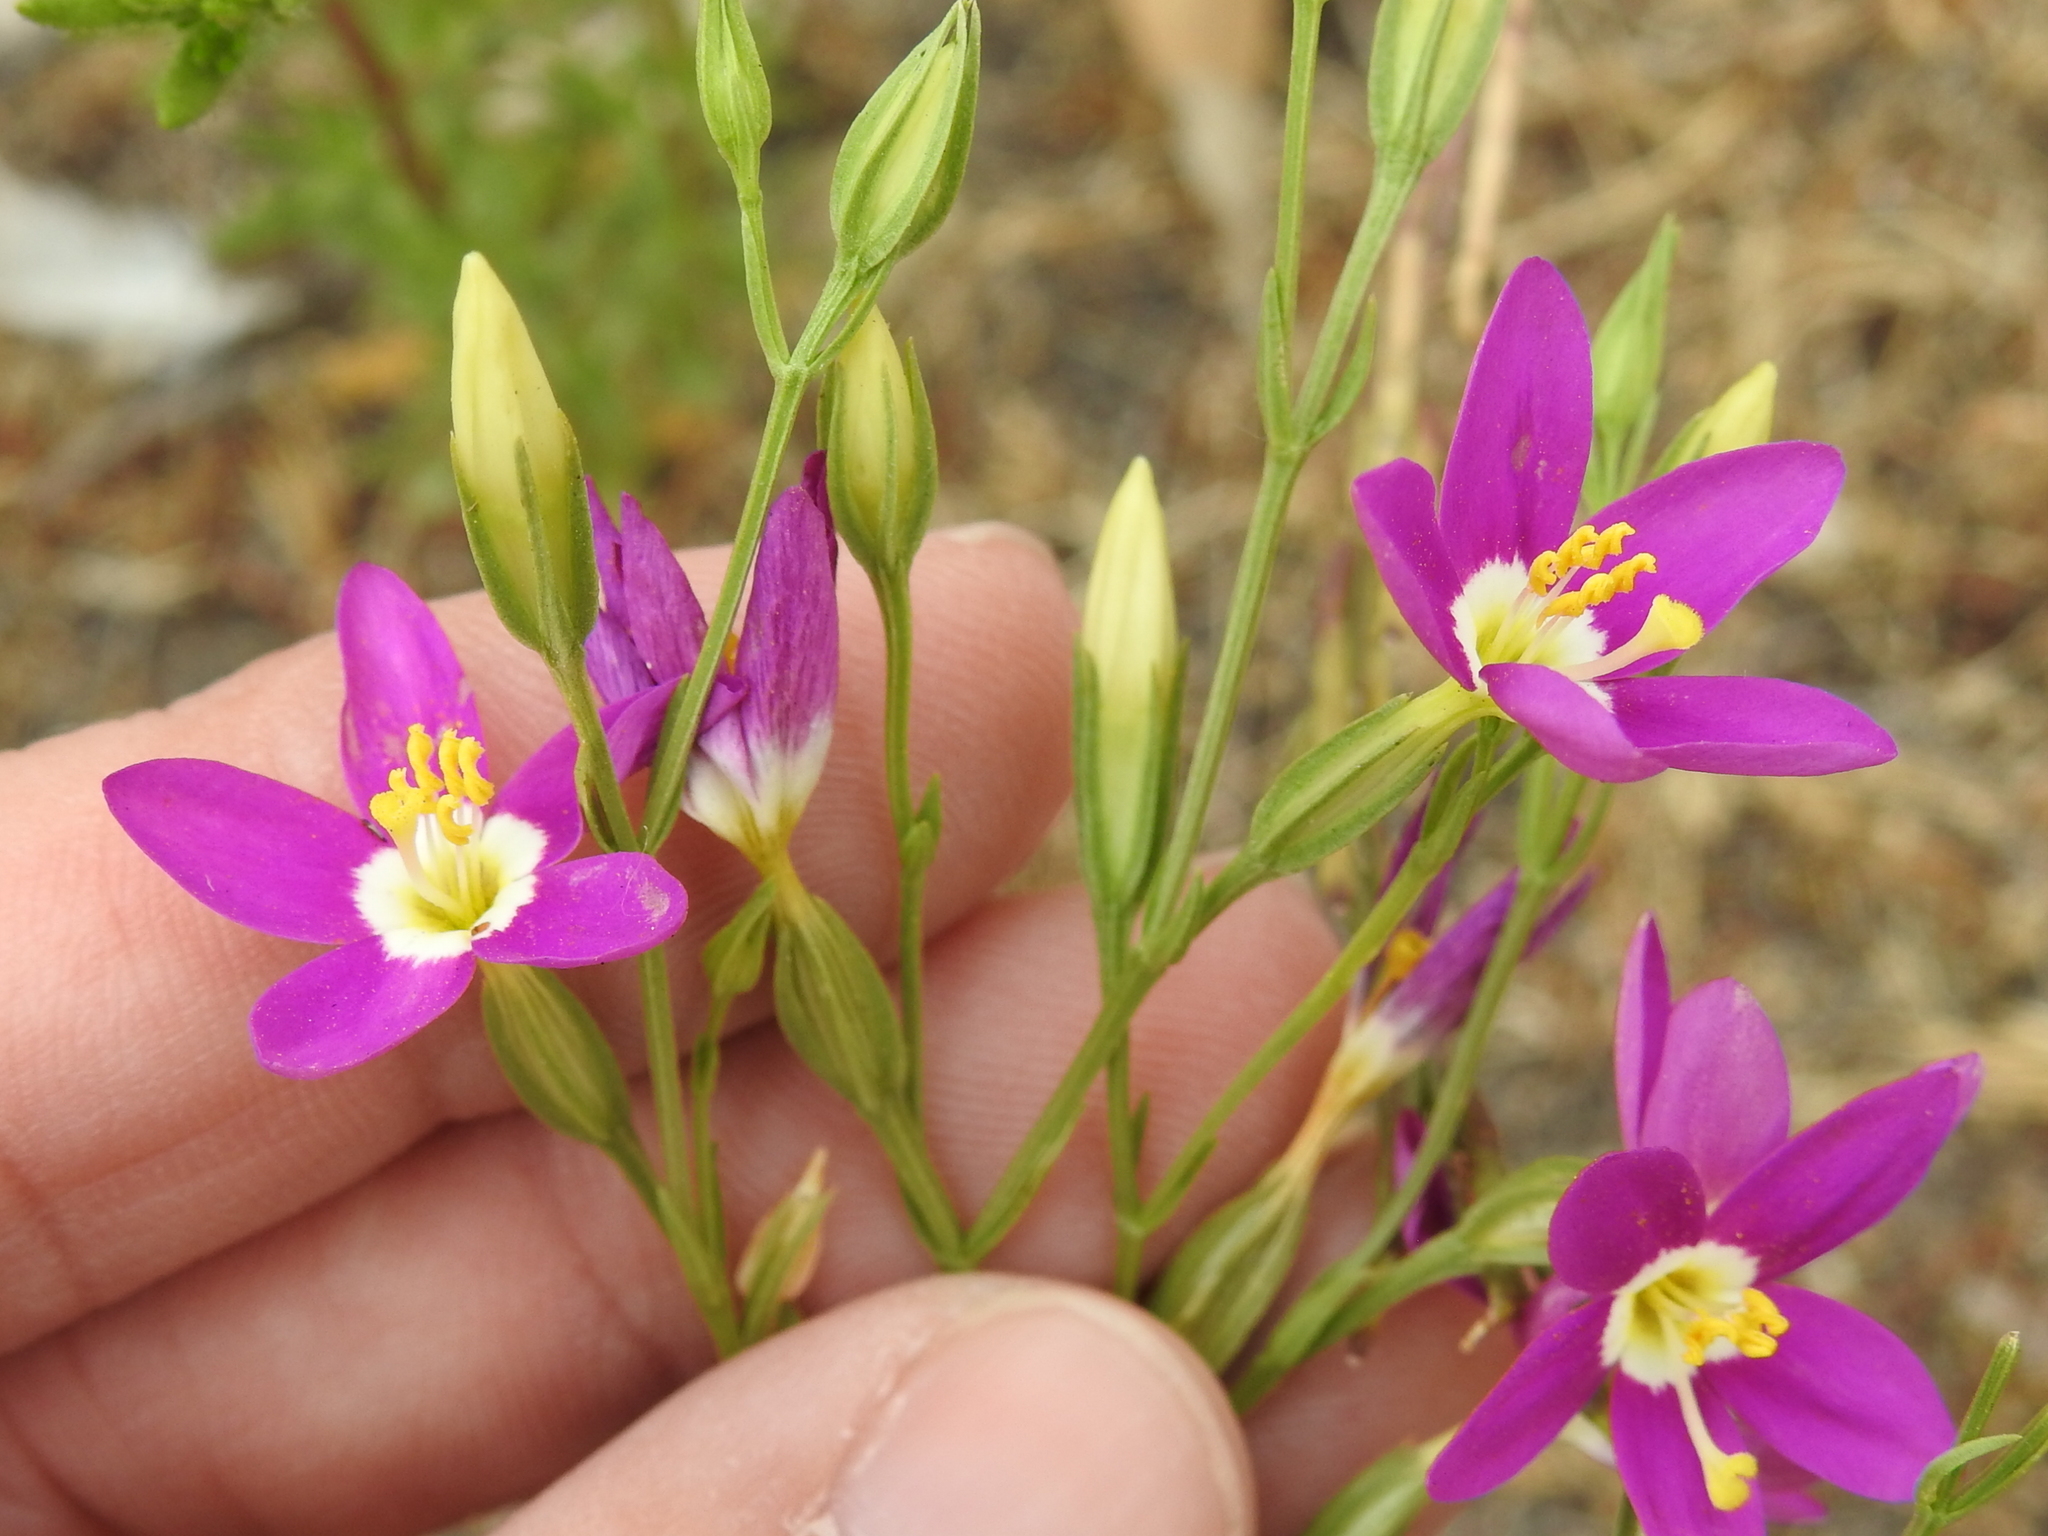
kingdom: Plantae
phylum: Tracheophyta
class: Magnoliopsida
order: Gentianales
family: Gentianaceae
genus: Zeltnera
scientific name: Zeltnera venusta
